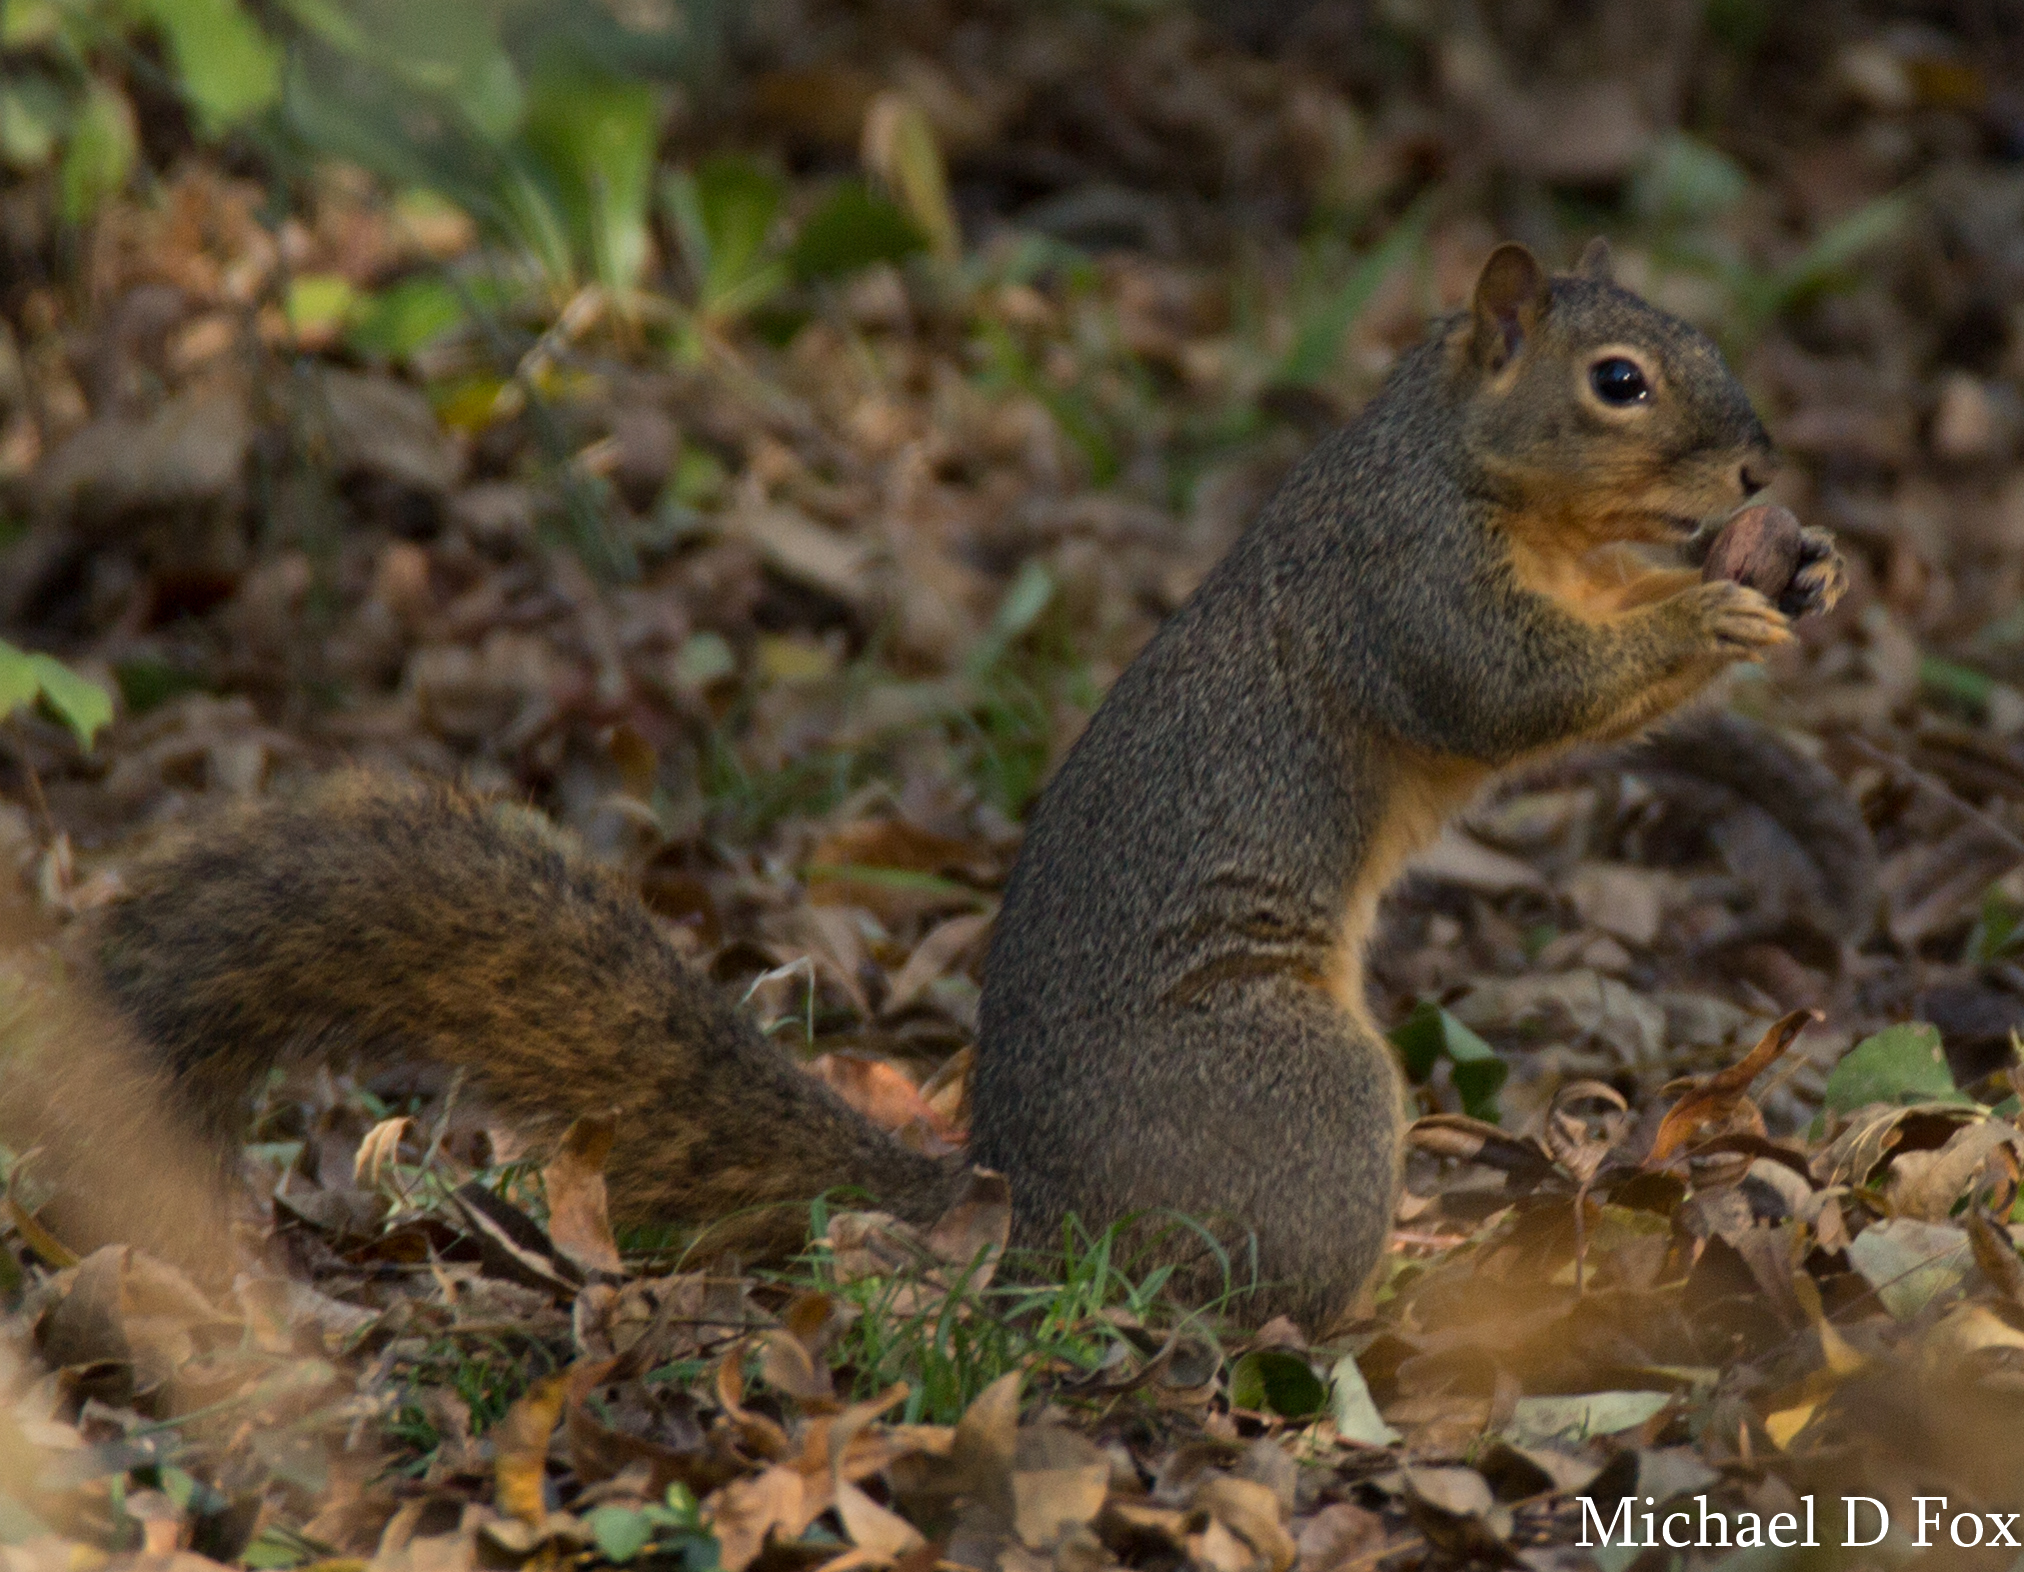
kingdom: Animalia
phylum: Chordata
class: Mammalia
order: Rodentia
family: Sciuridae
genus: Sciurus
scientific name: Sciurus niger
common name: Fox squirrel
